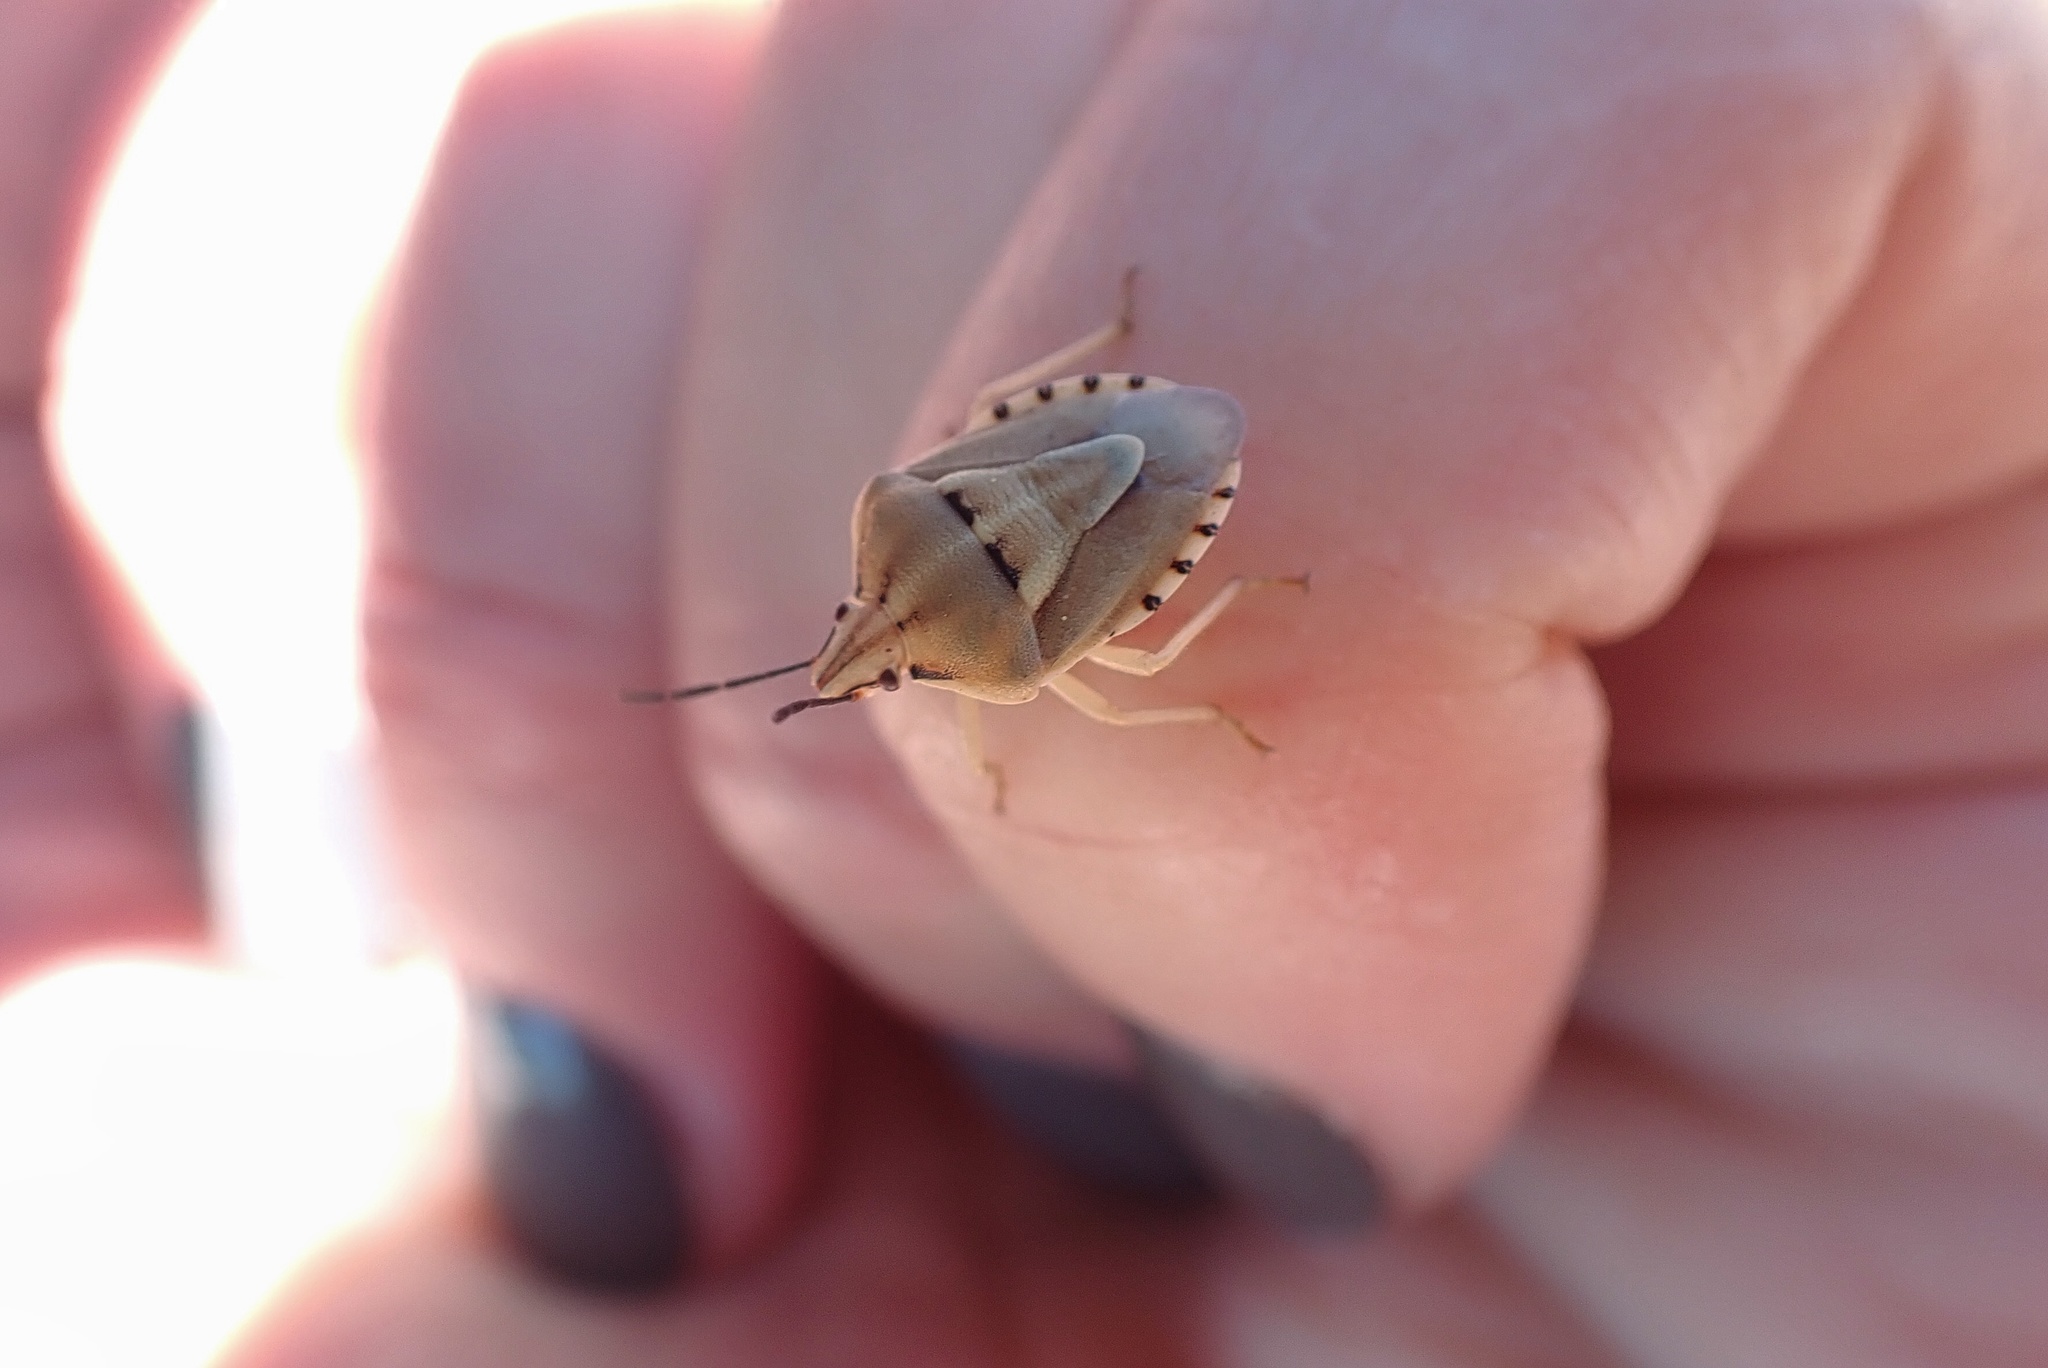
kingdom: Animalia
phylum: Arthropoda
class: Insecta
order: Hemiptera
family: Pentatomidae
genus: Antheminia
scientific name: Antheminia
